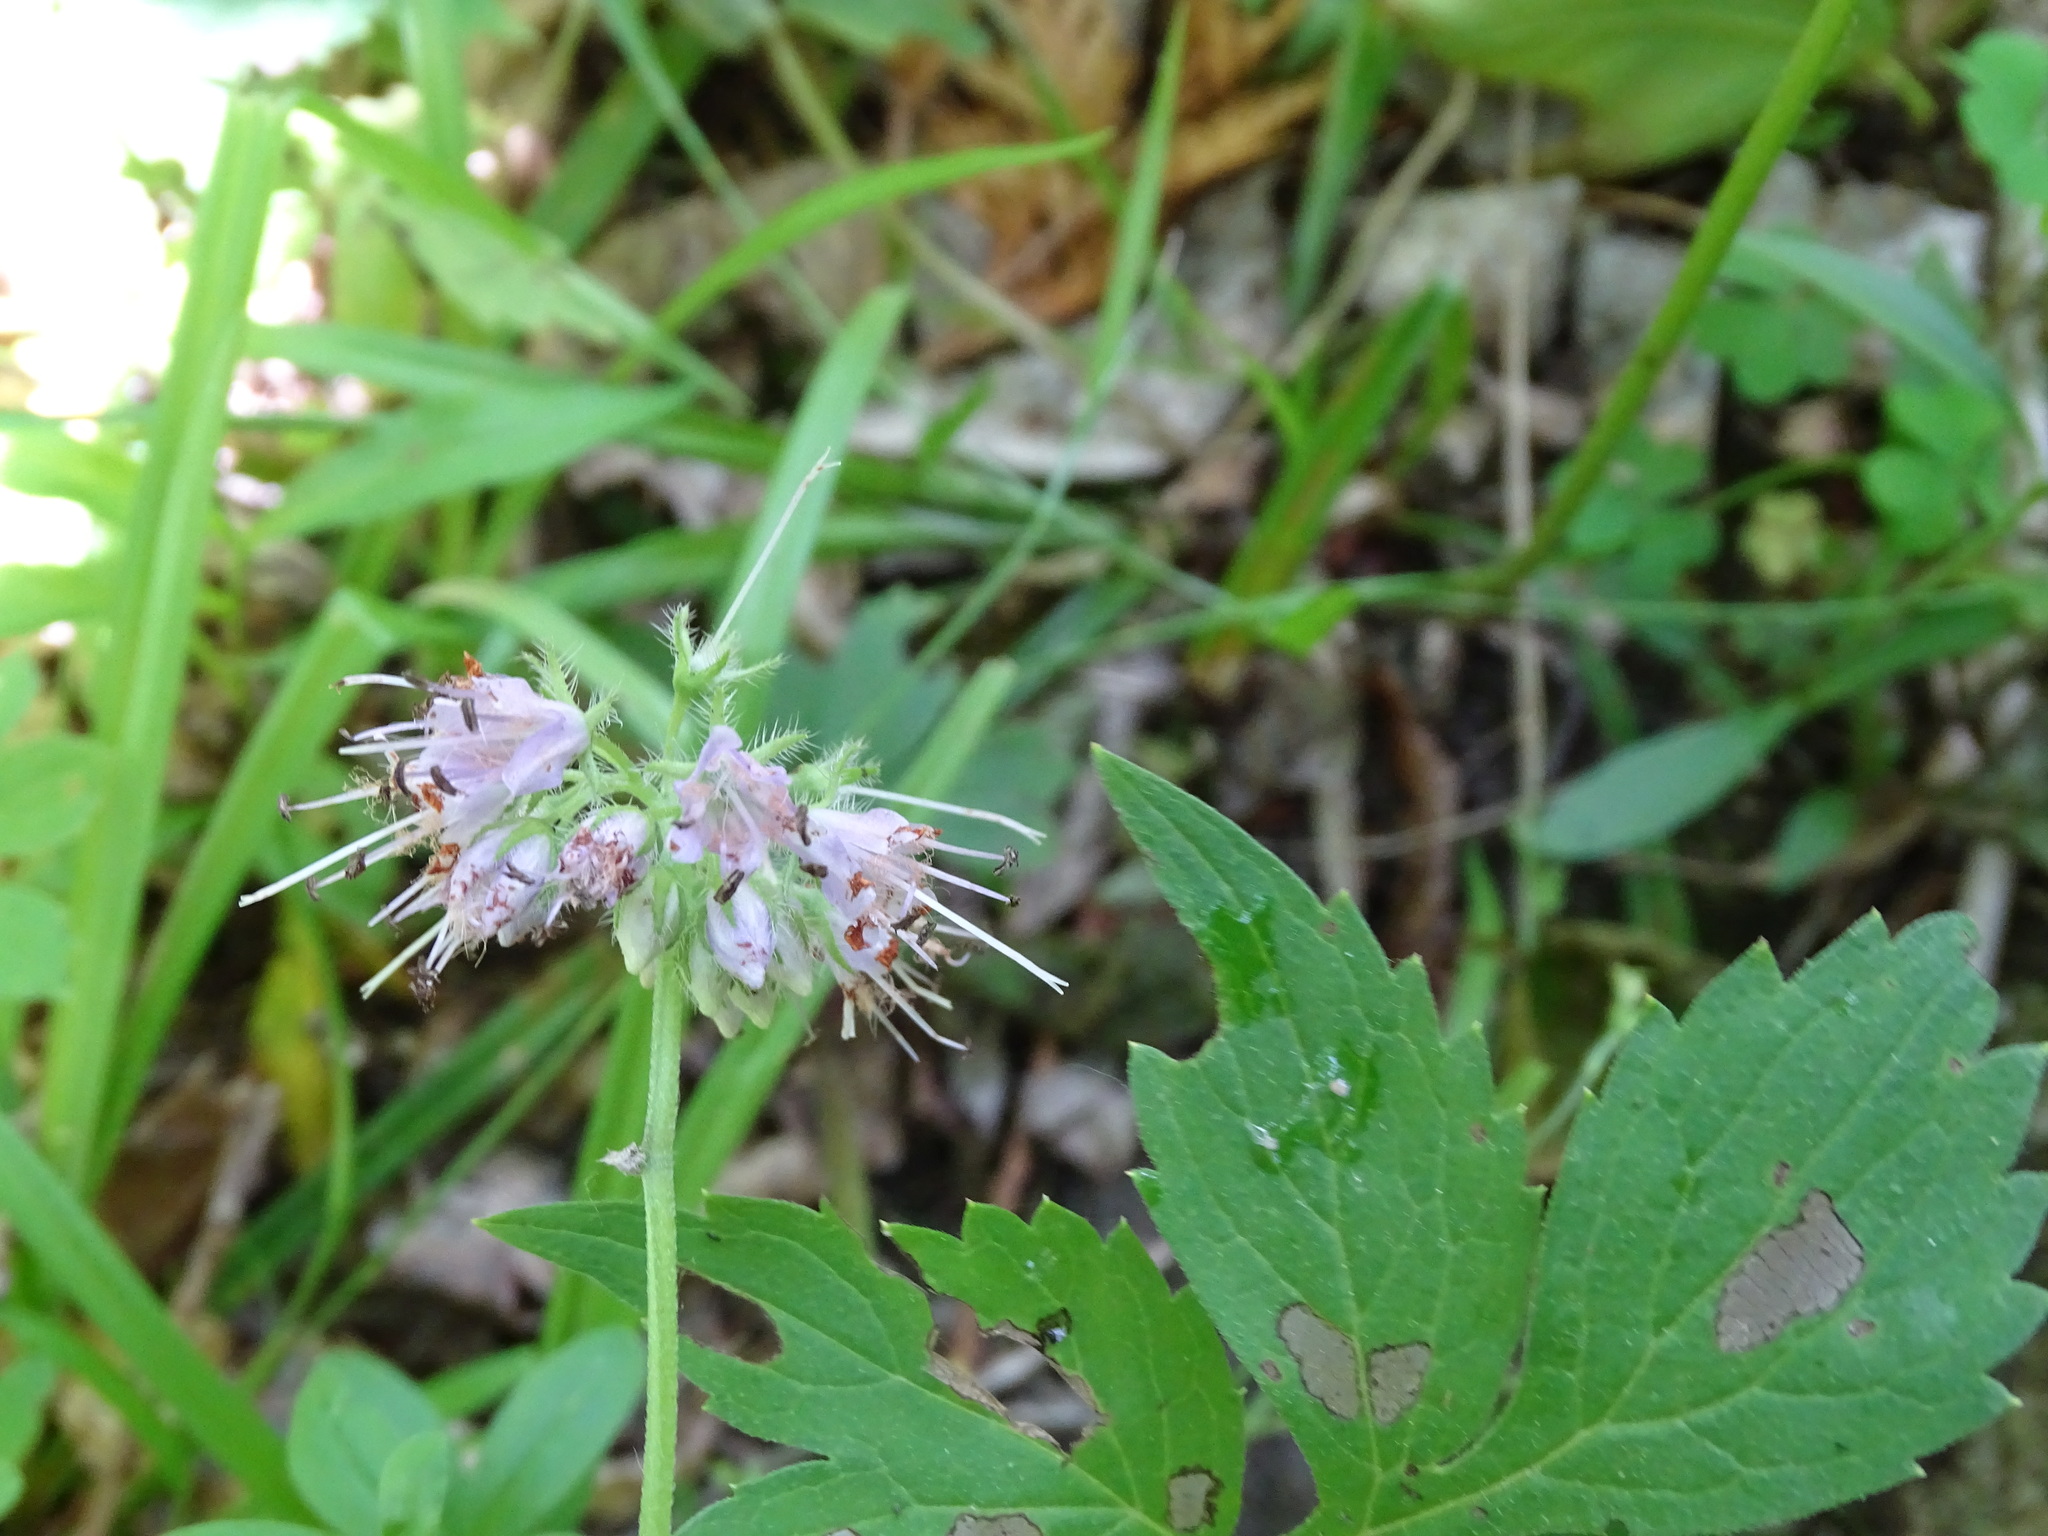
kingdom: Plantae
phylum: Tracheophyta
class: Magnoliopsida
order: Boraginales
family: Hydrophyllaceae
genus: Hydrophyllum
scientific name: Hydrophyllum virginianum
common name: Virginia waterleaf
